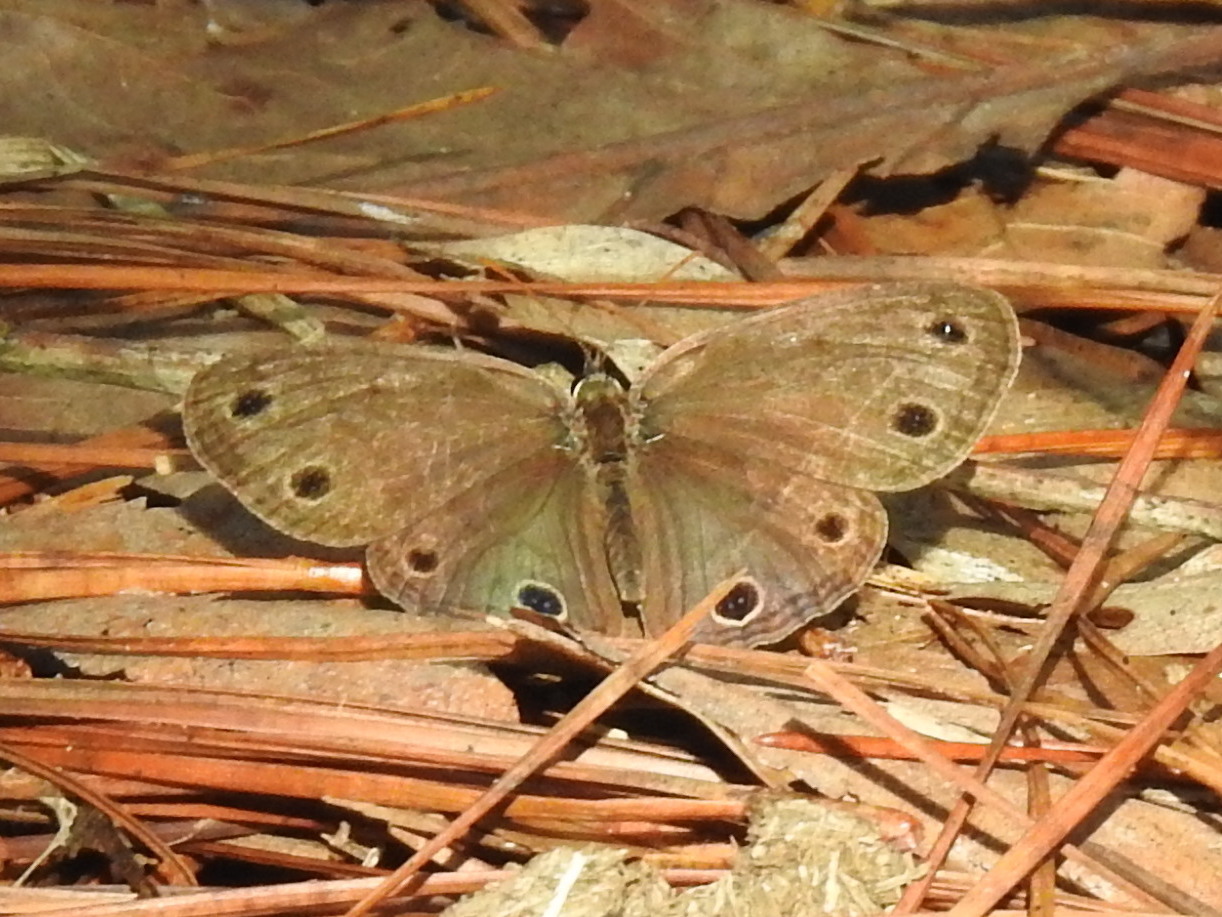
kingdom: Animalia
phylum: Arthropoda
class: Insecta
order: Lepidoptera
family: Nymphalidae
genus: Euptychia
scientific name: Euptychia cymela
